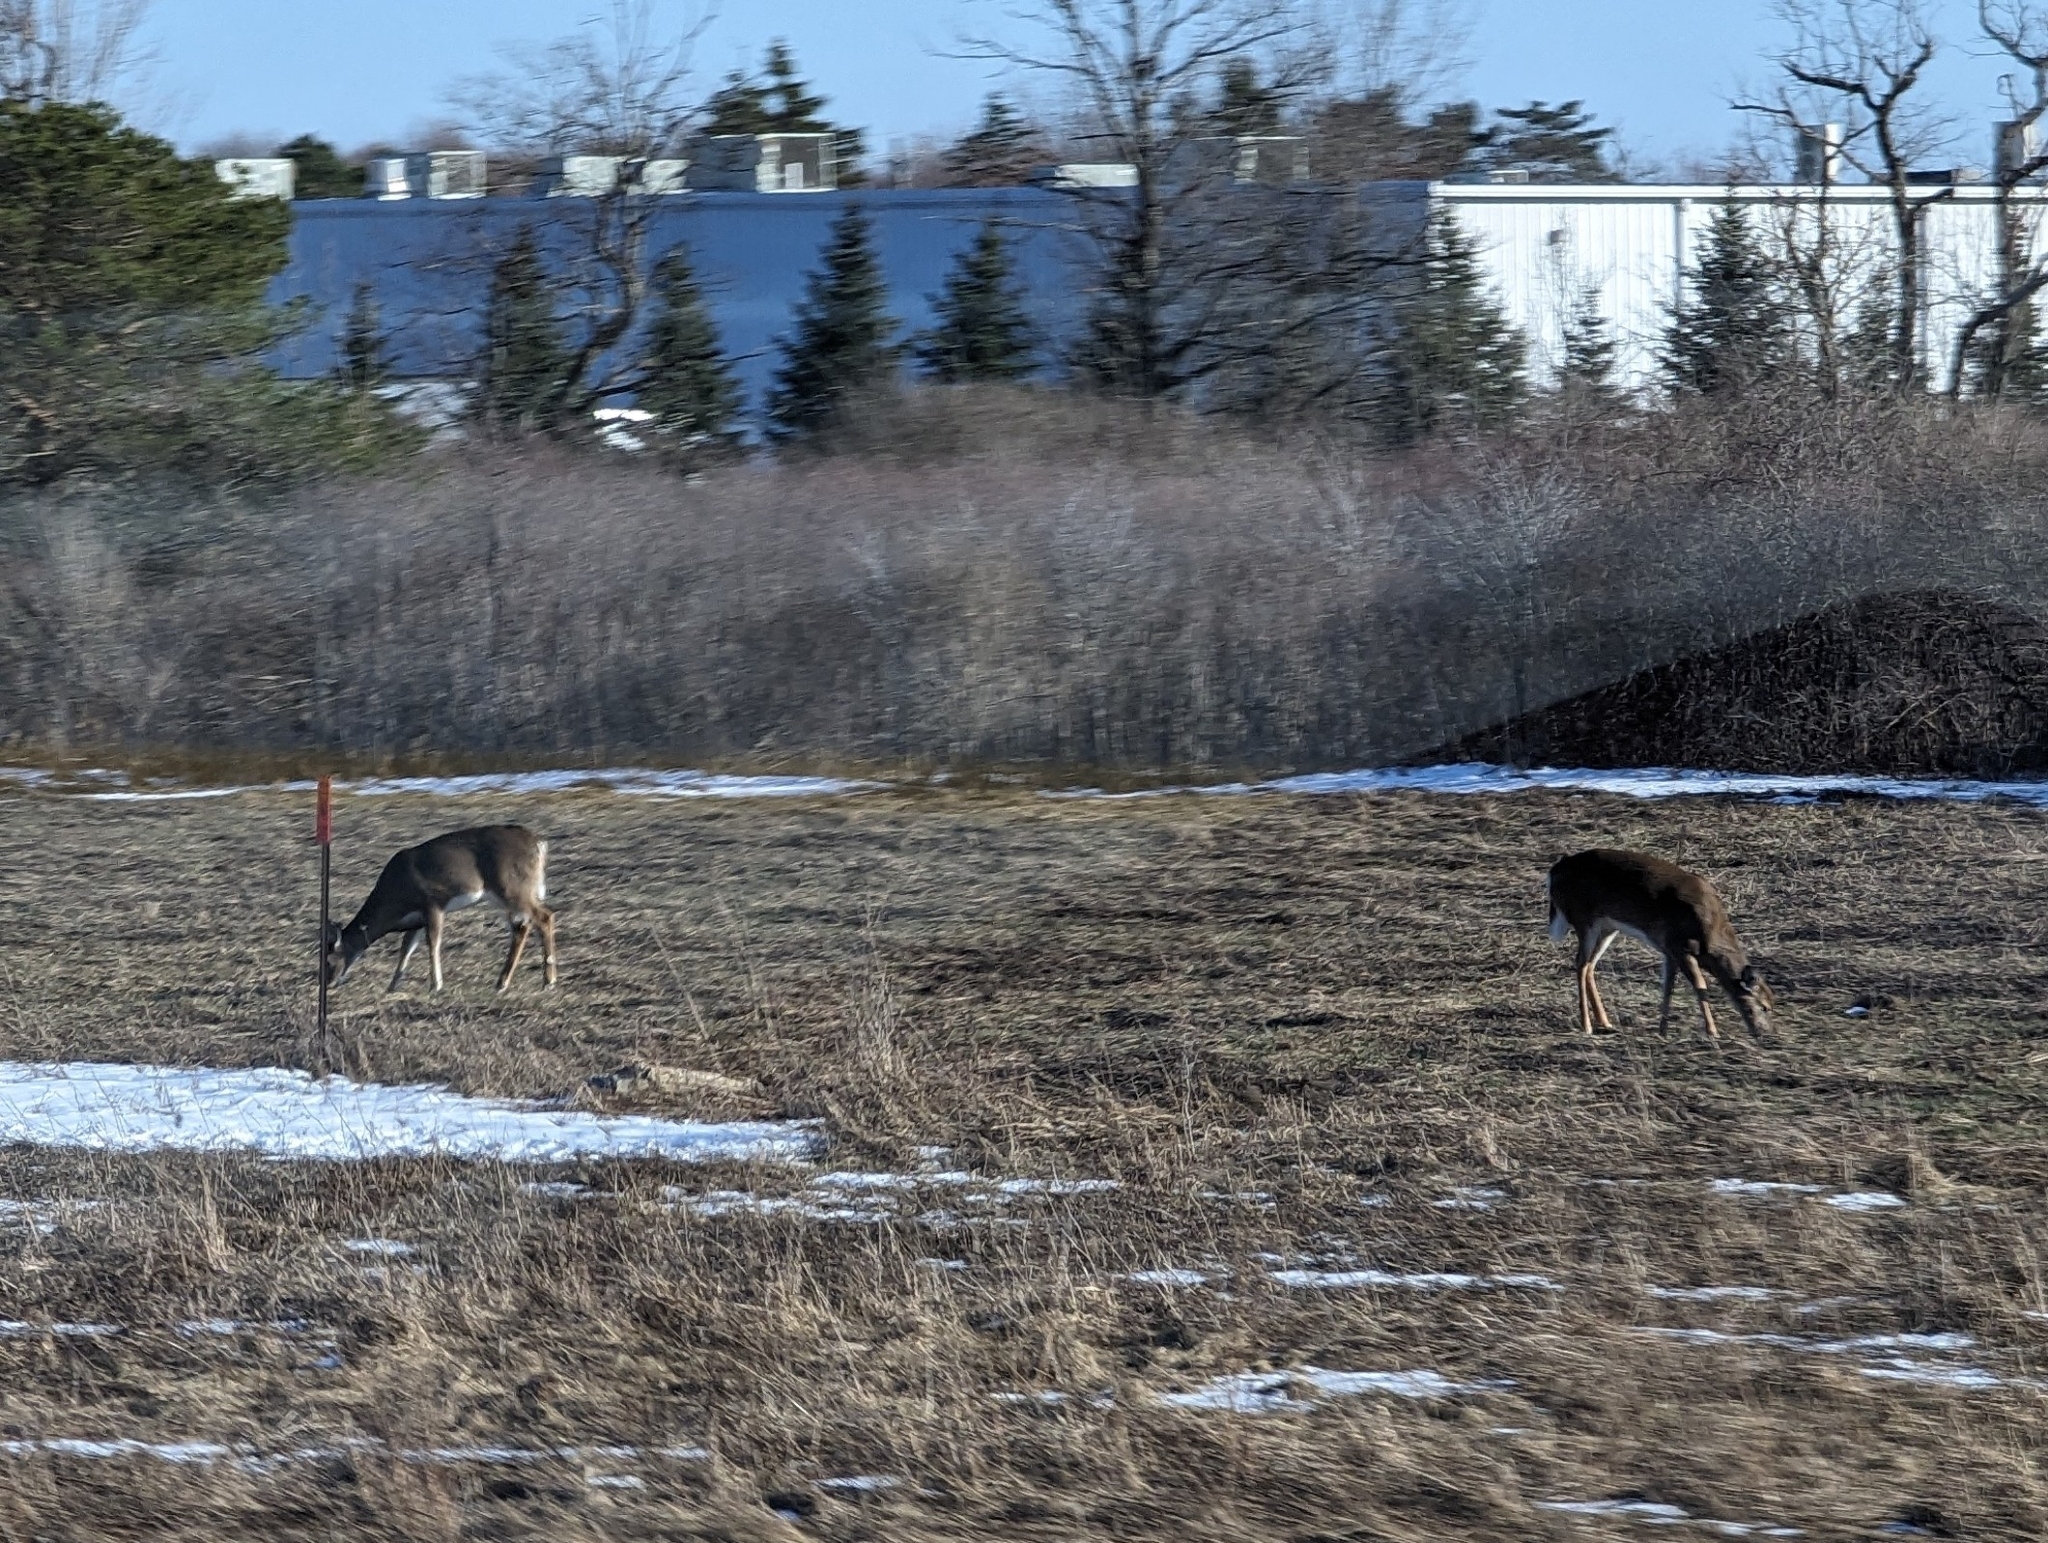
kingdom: Animalia
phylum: Chordata
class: Mammalia
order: Artiodactyla
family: Cervidae
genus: Odocoileus
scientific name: Odocoileus virginianus
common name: White-tailed deer
